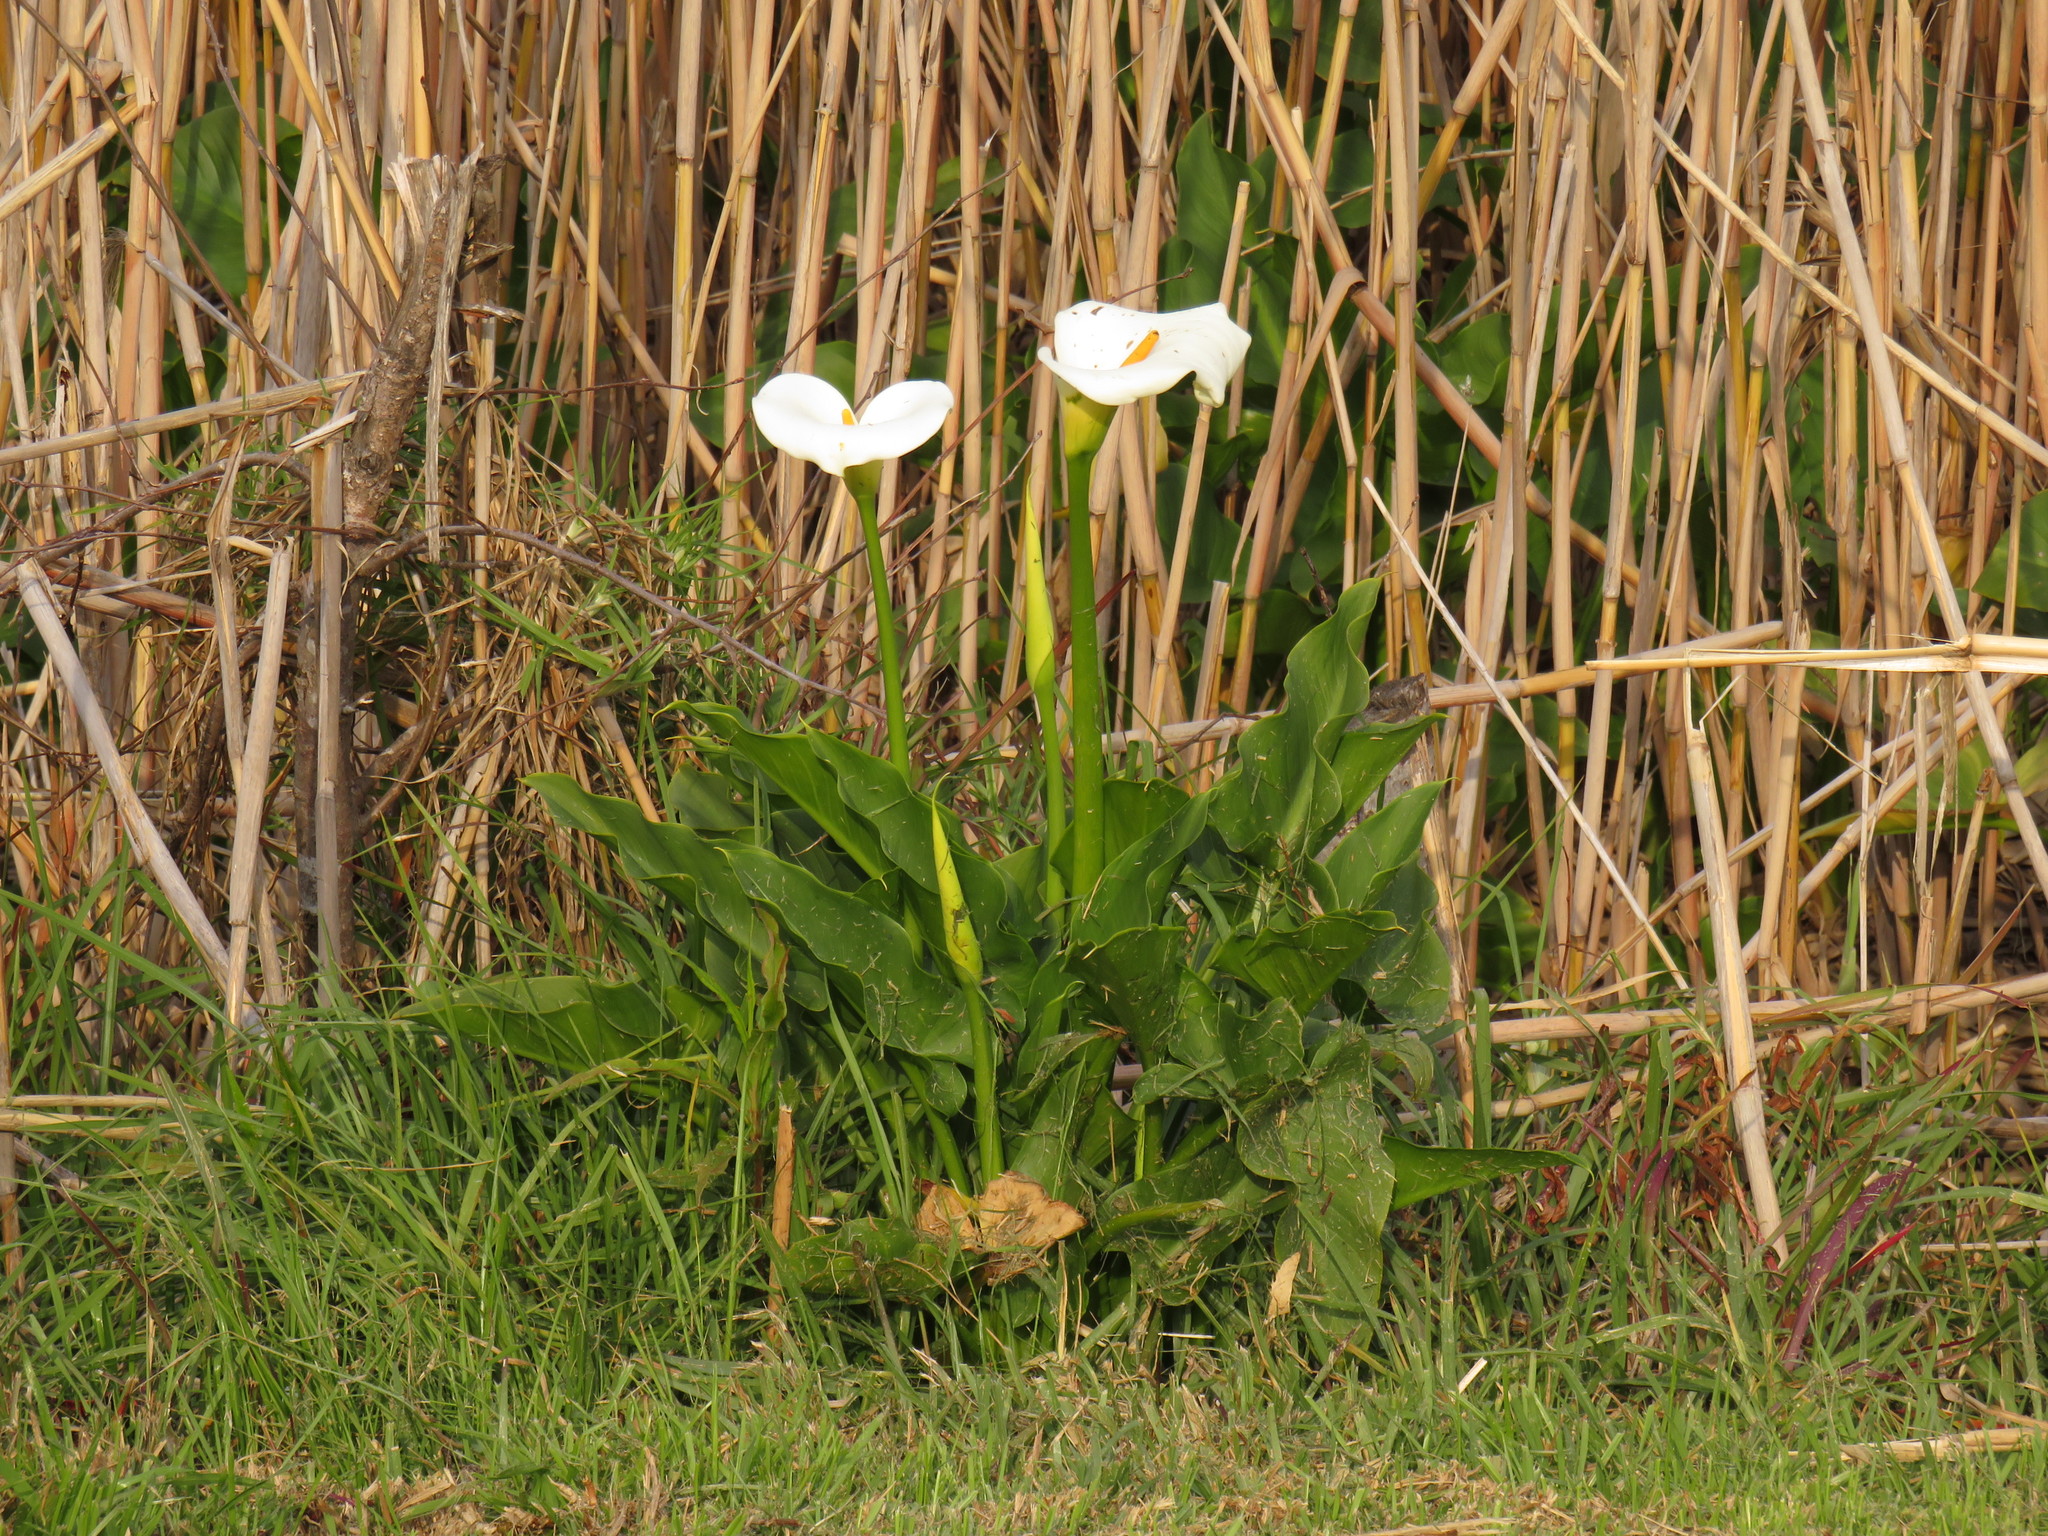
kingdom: Plantae
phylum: Tracheophyta
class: Liliopsida
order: Alismatales
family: Araceae
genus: Zantedeschia
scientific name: Zantedeschia aethiopica
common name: Altar-lily
